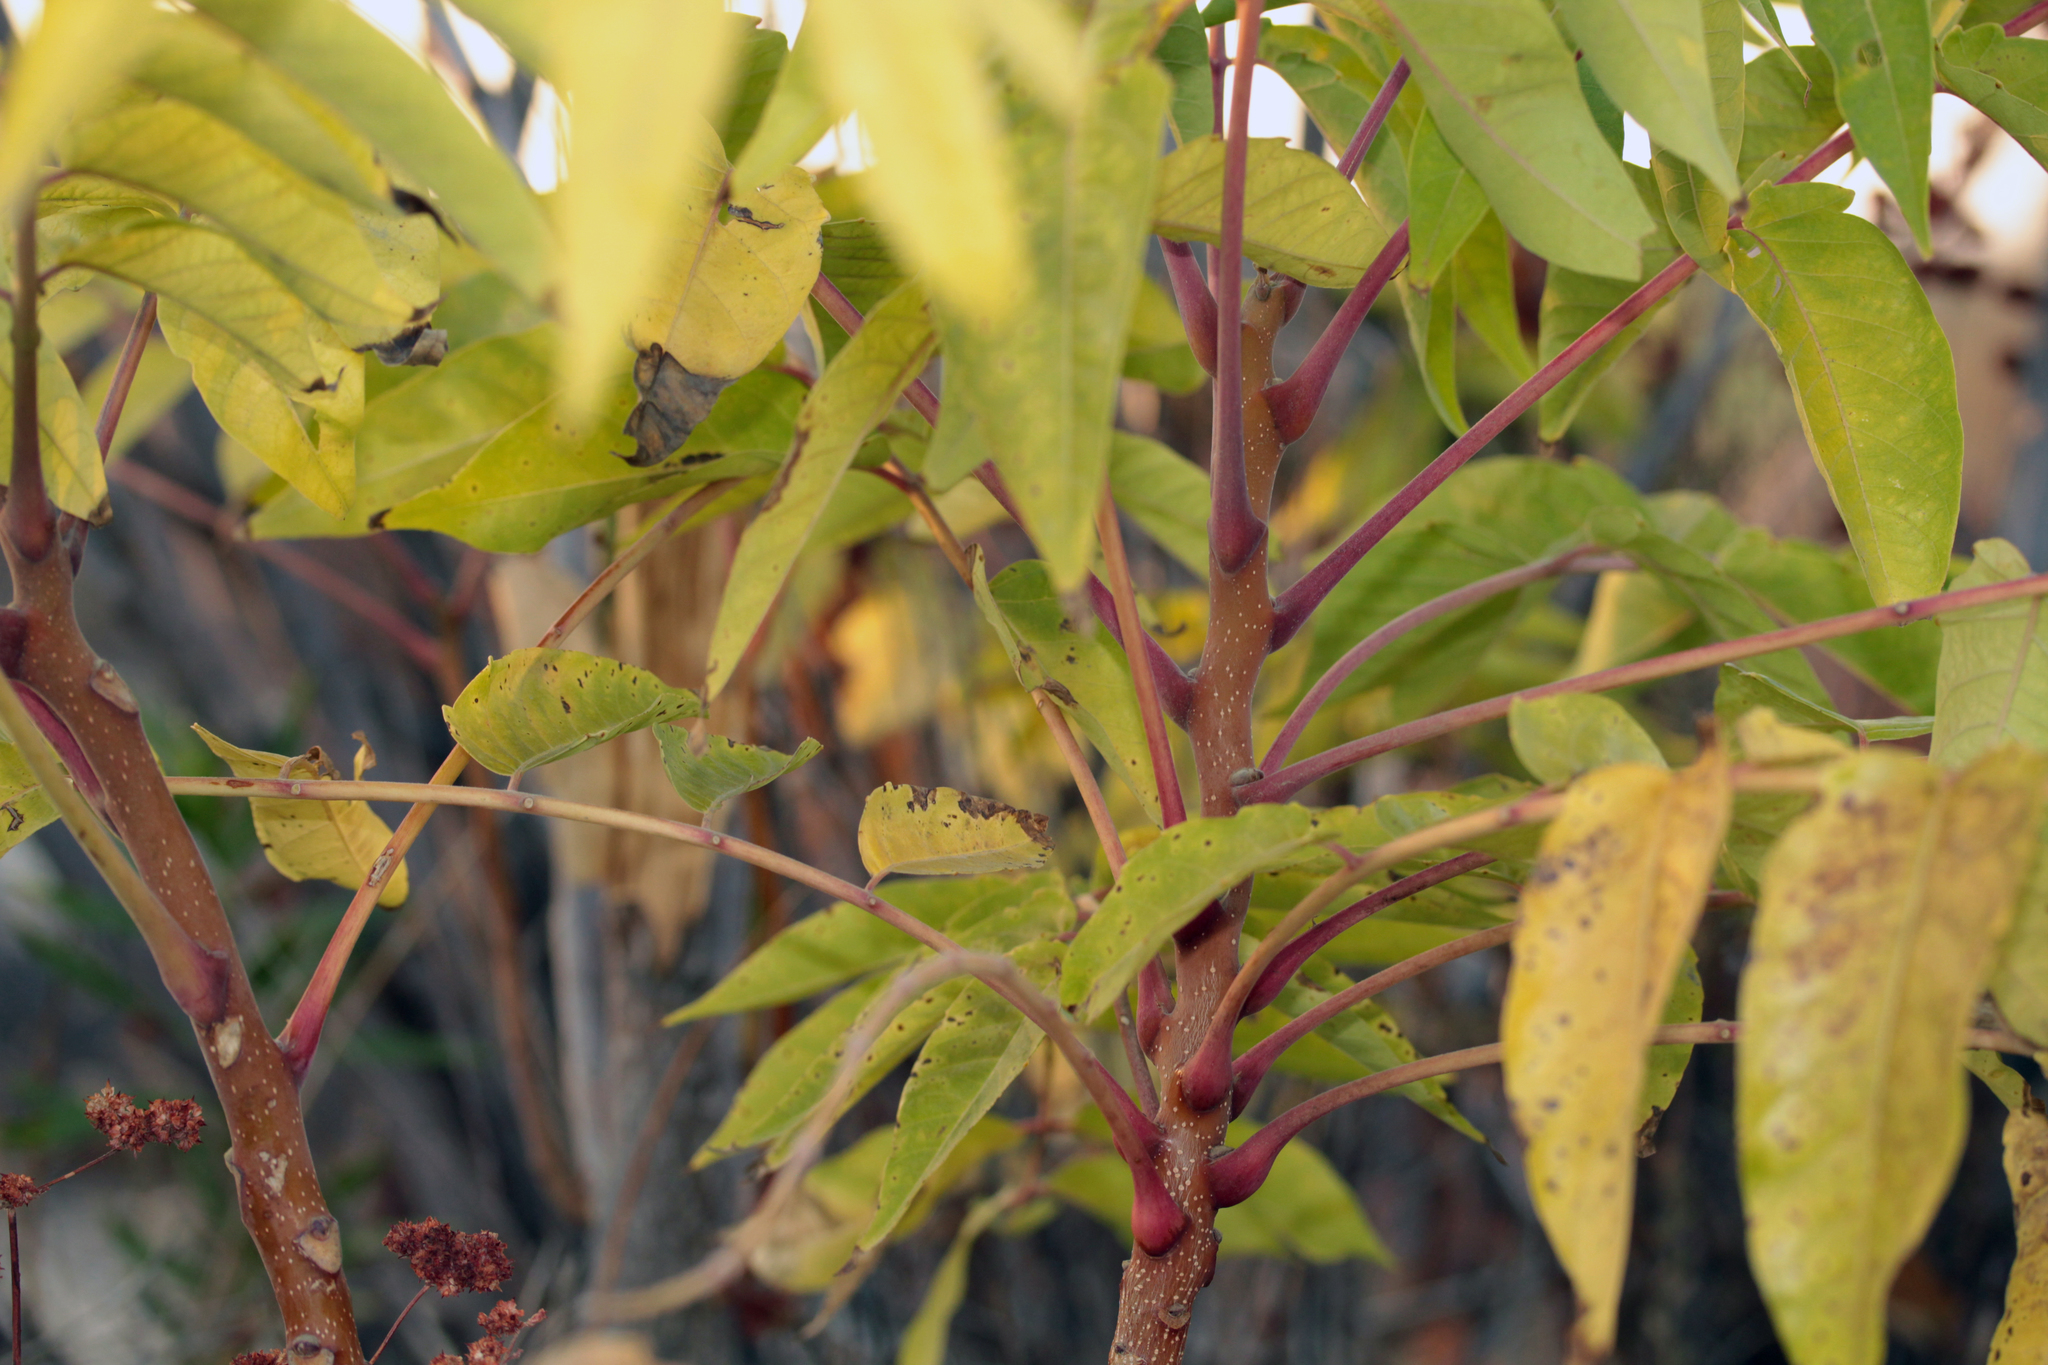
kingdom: Plantae
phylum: Tracheophyta
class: Magnoliopsida
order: Sapindales
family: Simaroubaceae
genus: Ailanthus
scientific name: Ailanthus altissima
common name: Tree-of-heaven
